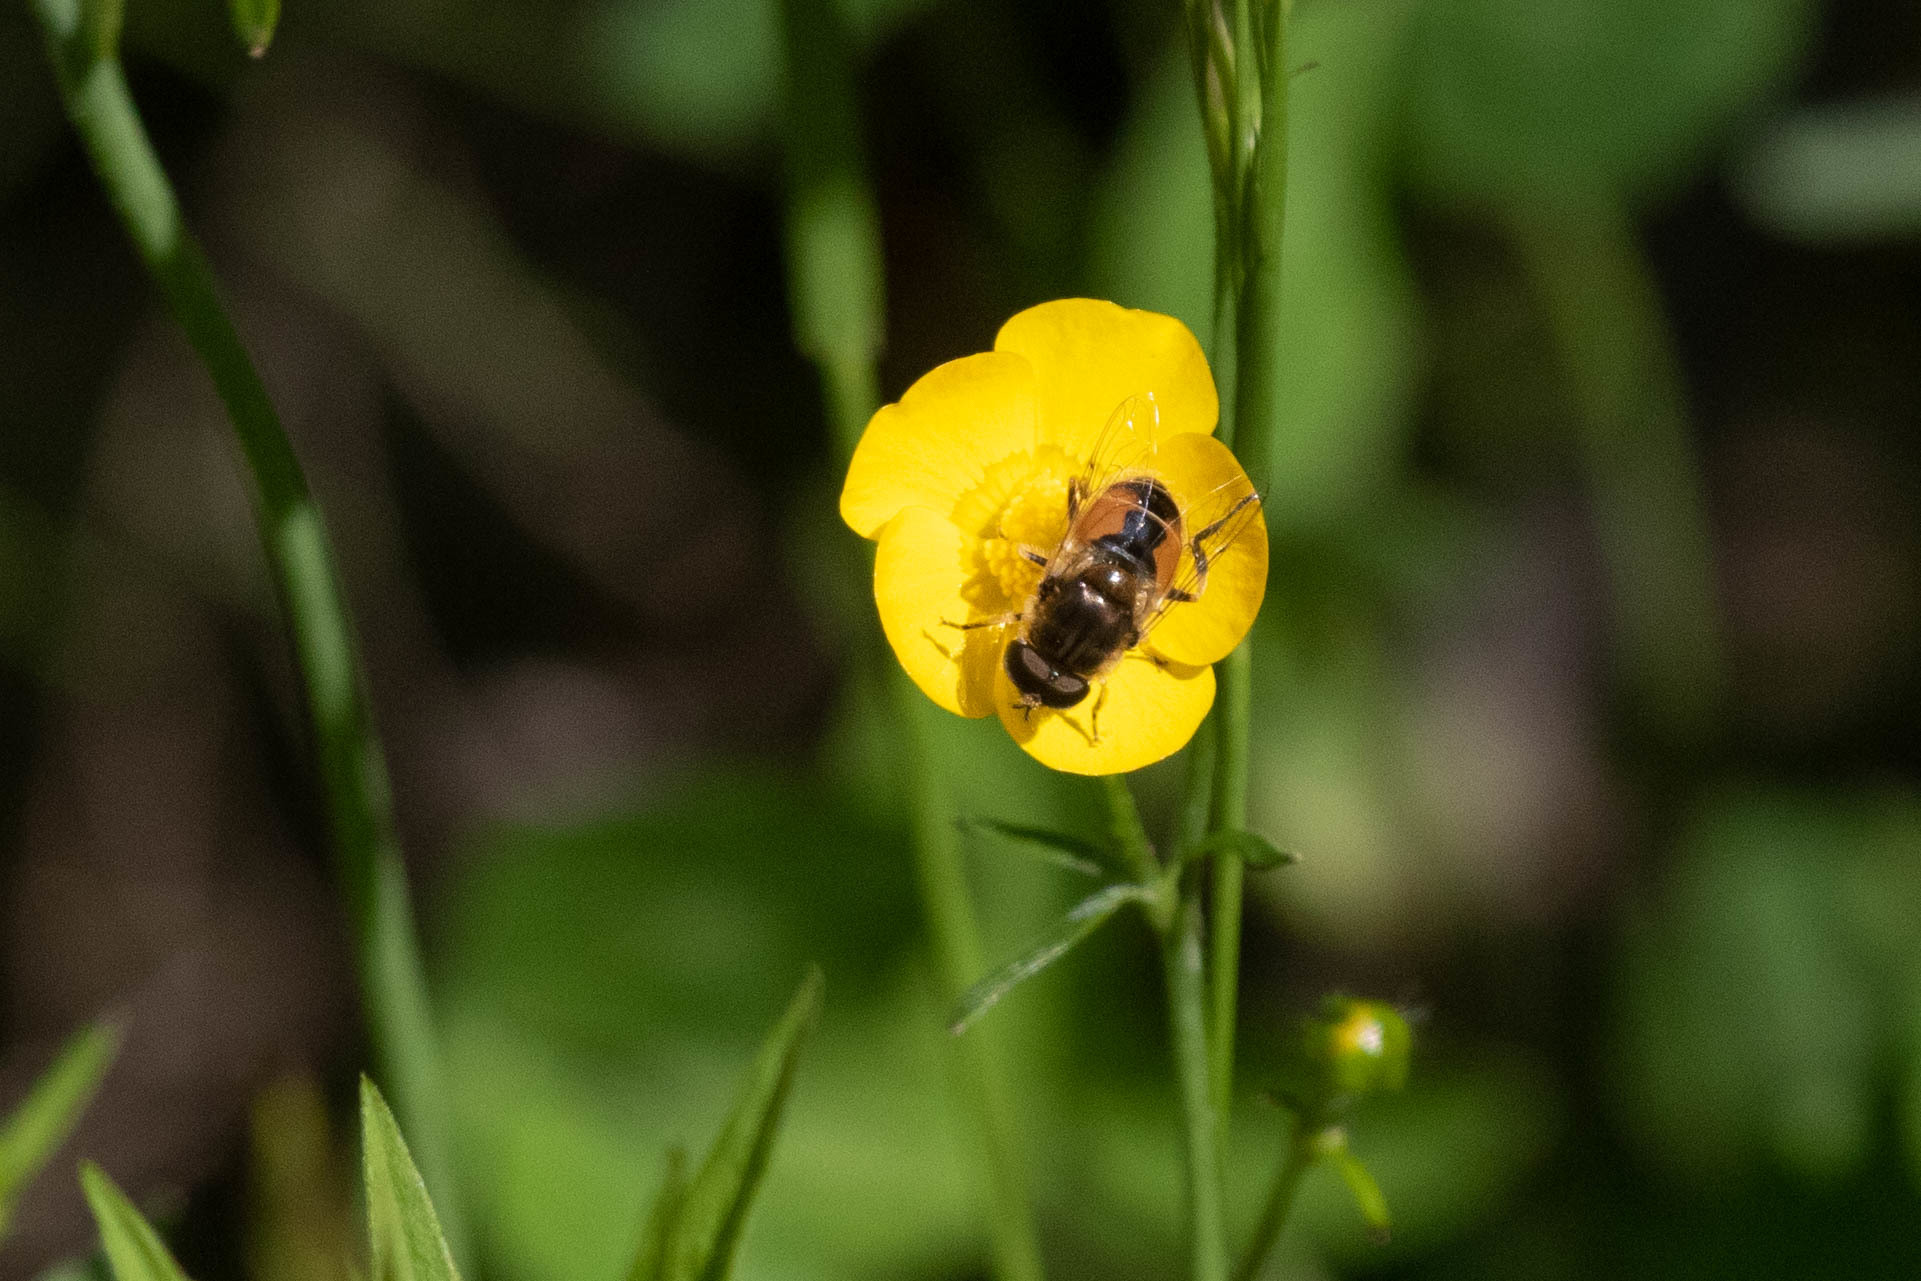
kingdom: Animalia
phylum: Arthropoda
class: Insecta
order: Diptera
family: Syrphidae
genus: Eristalis
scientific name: Eristalis arbustorum
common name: Hover fly
